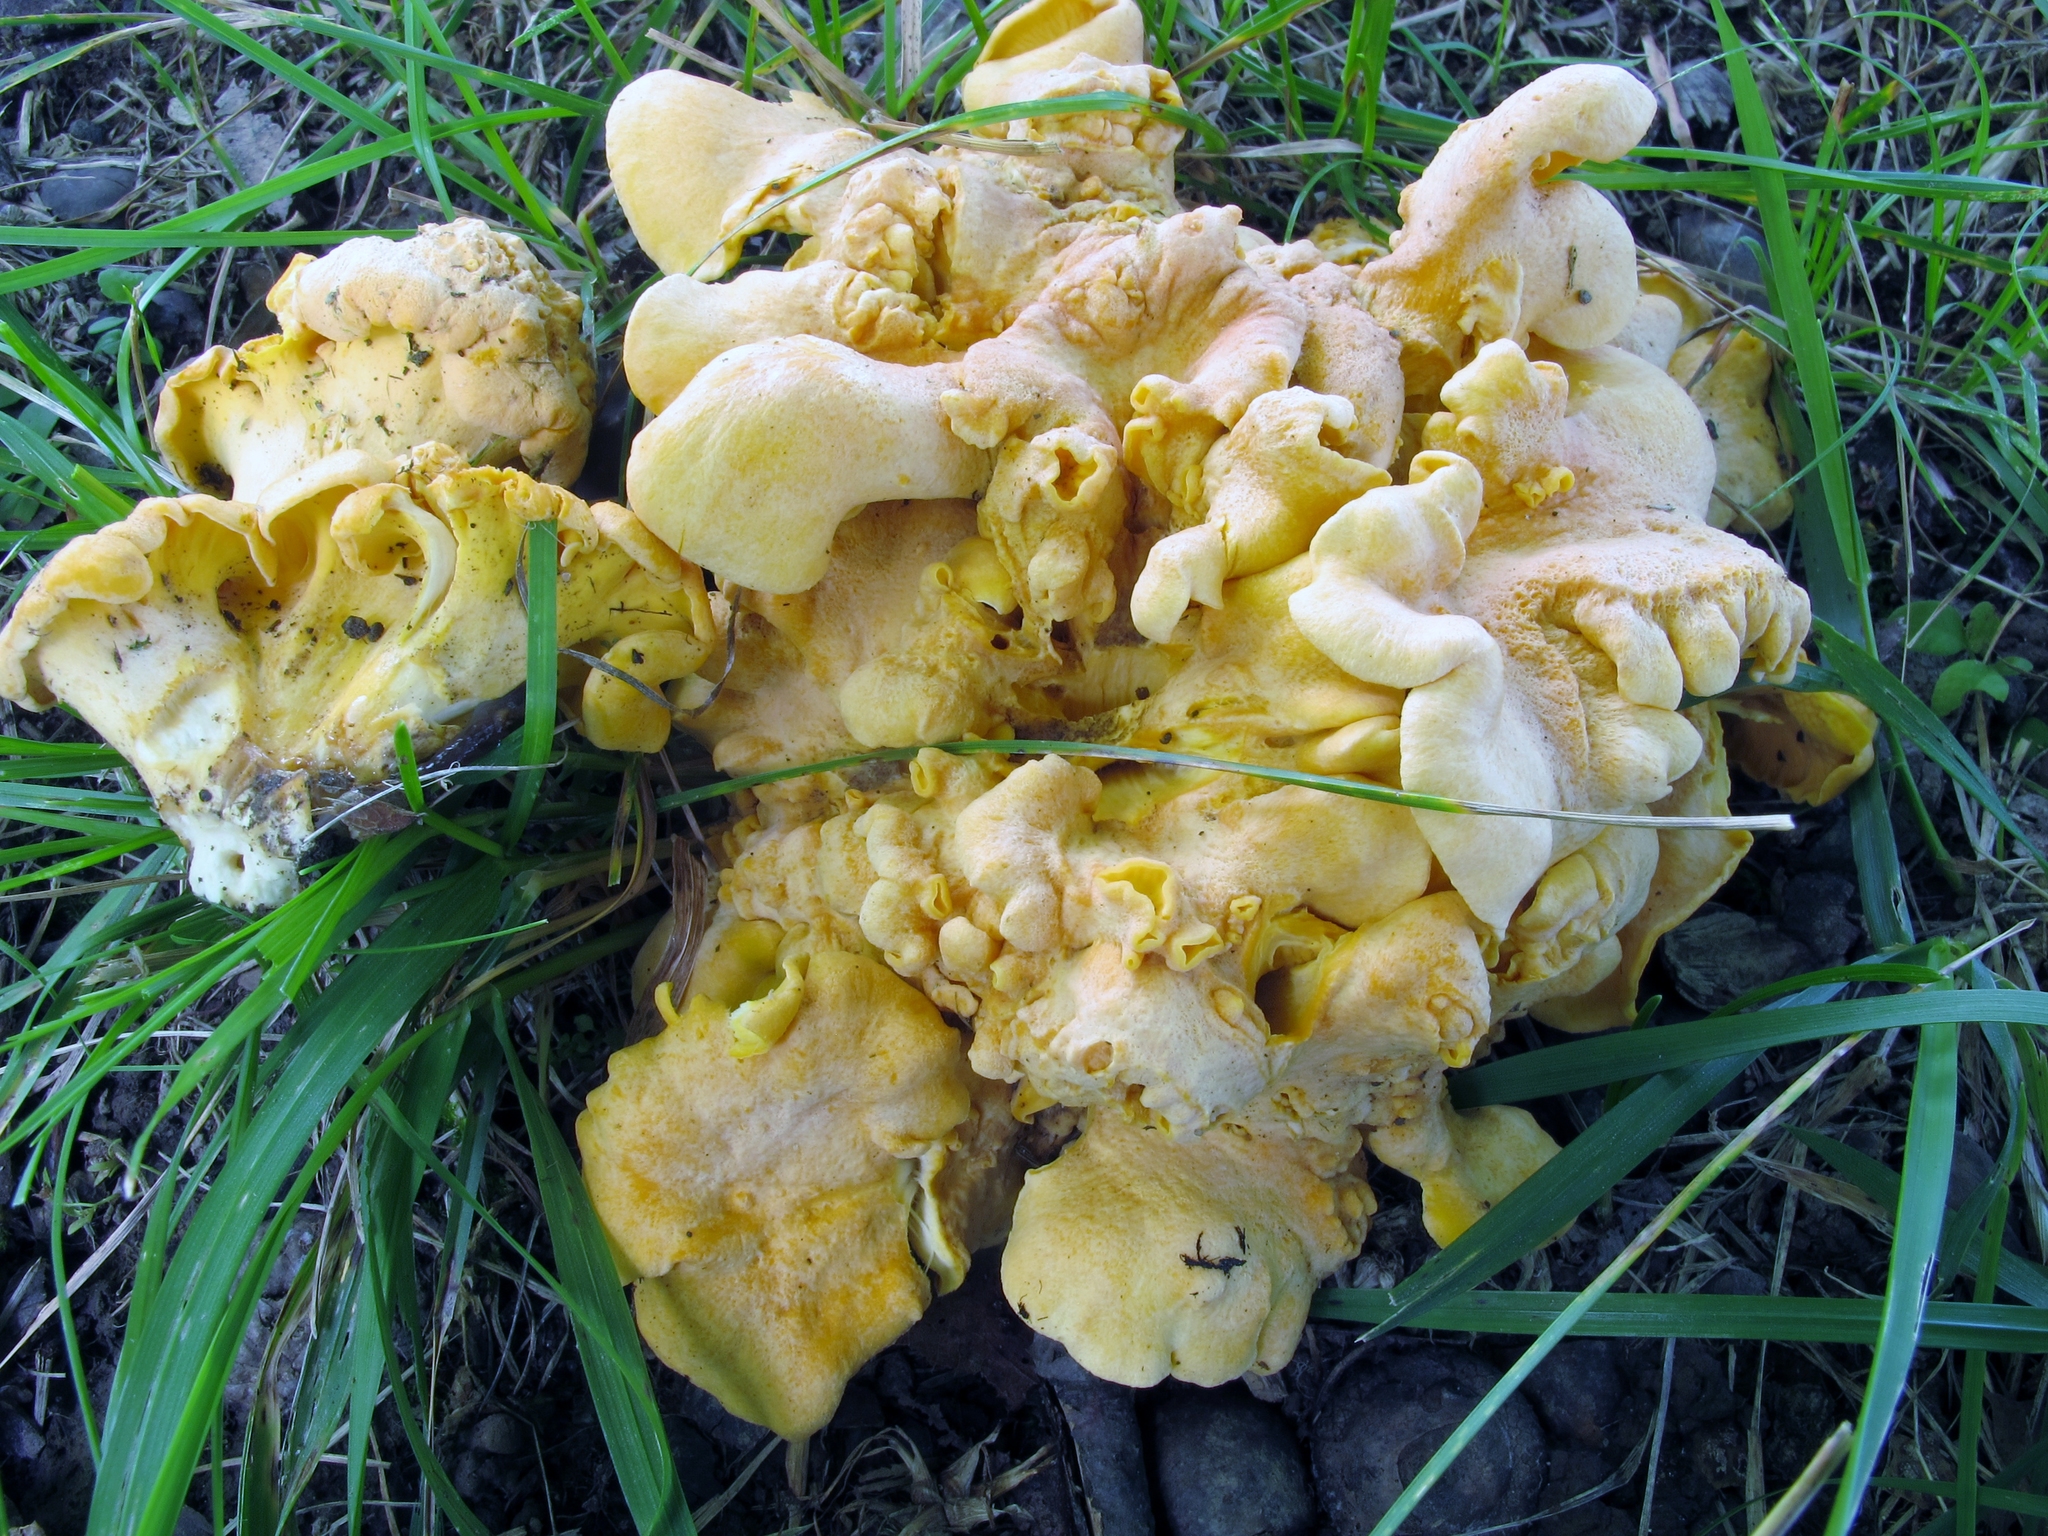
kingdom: Fungi
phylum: Basidiomycota
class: Agaricomycetes
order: Cantharellales
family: Hydnaceae
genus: Cantharellus
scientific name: Cantharellus lateritius
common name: Smooth chanterelle
